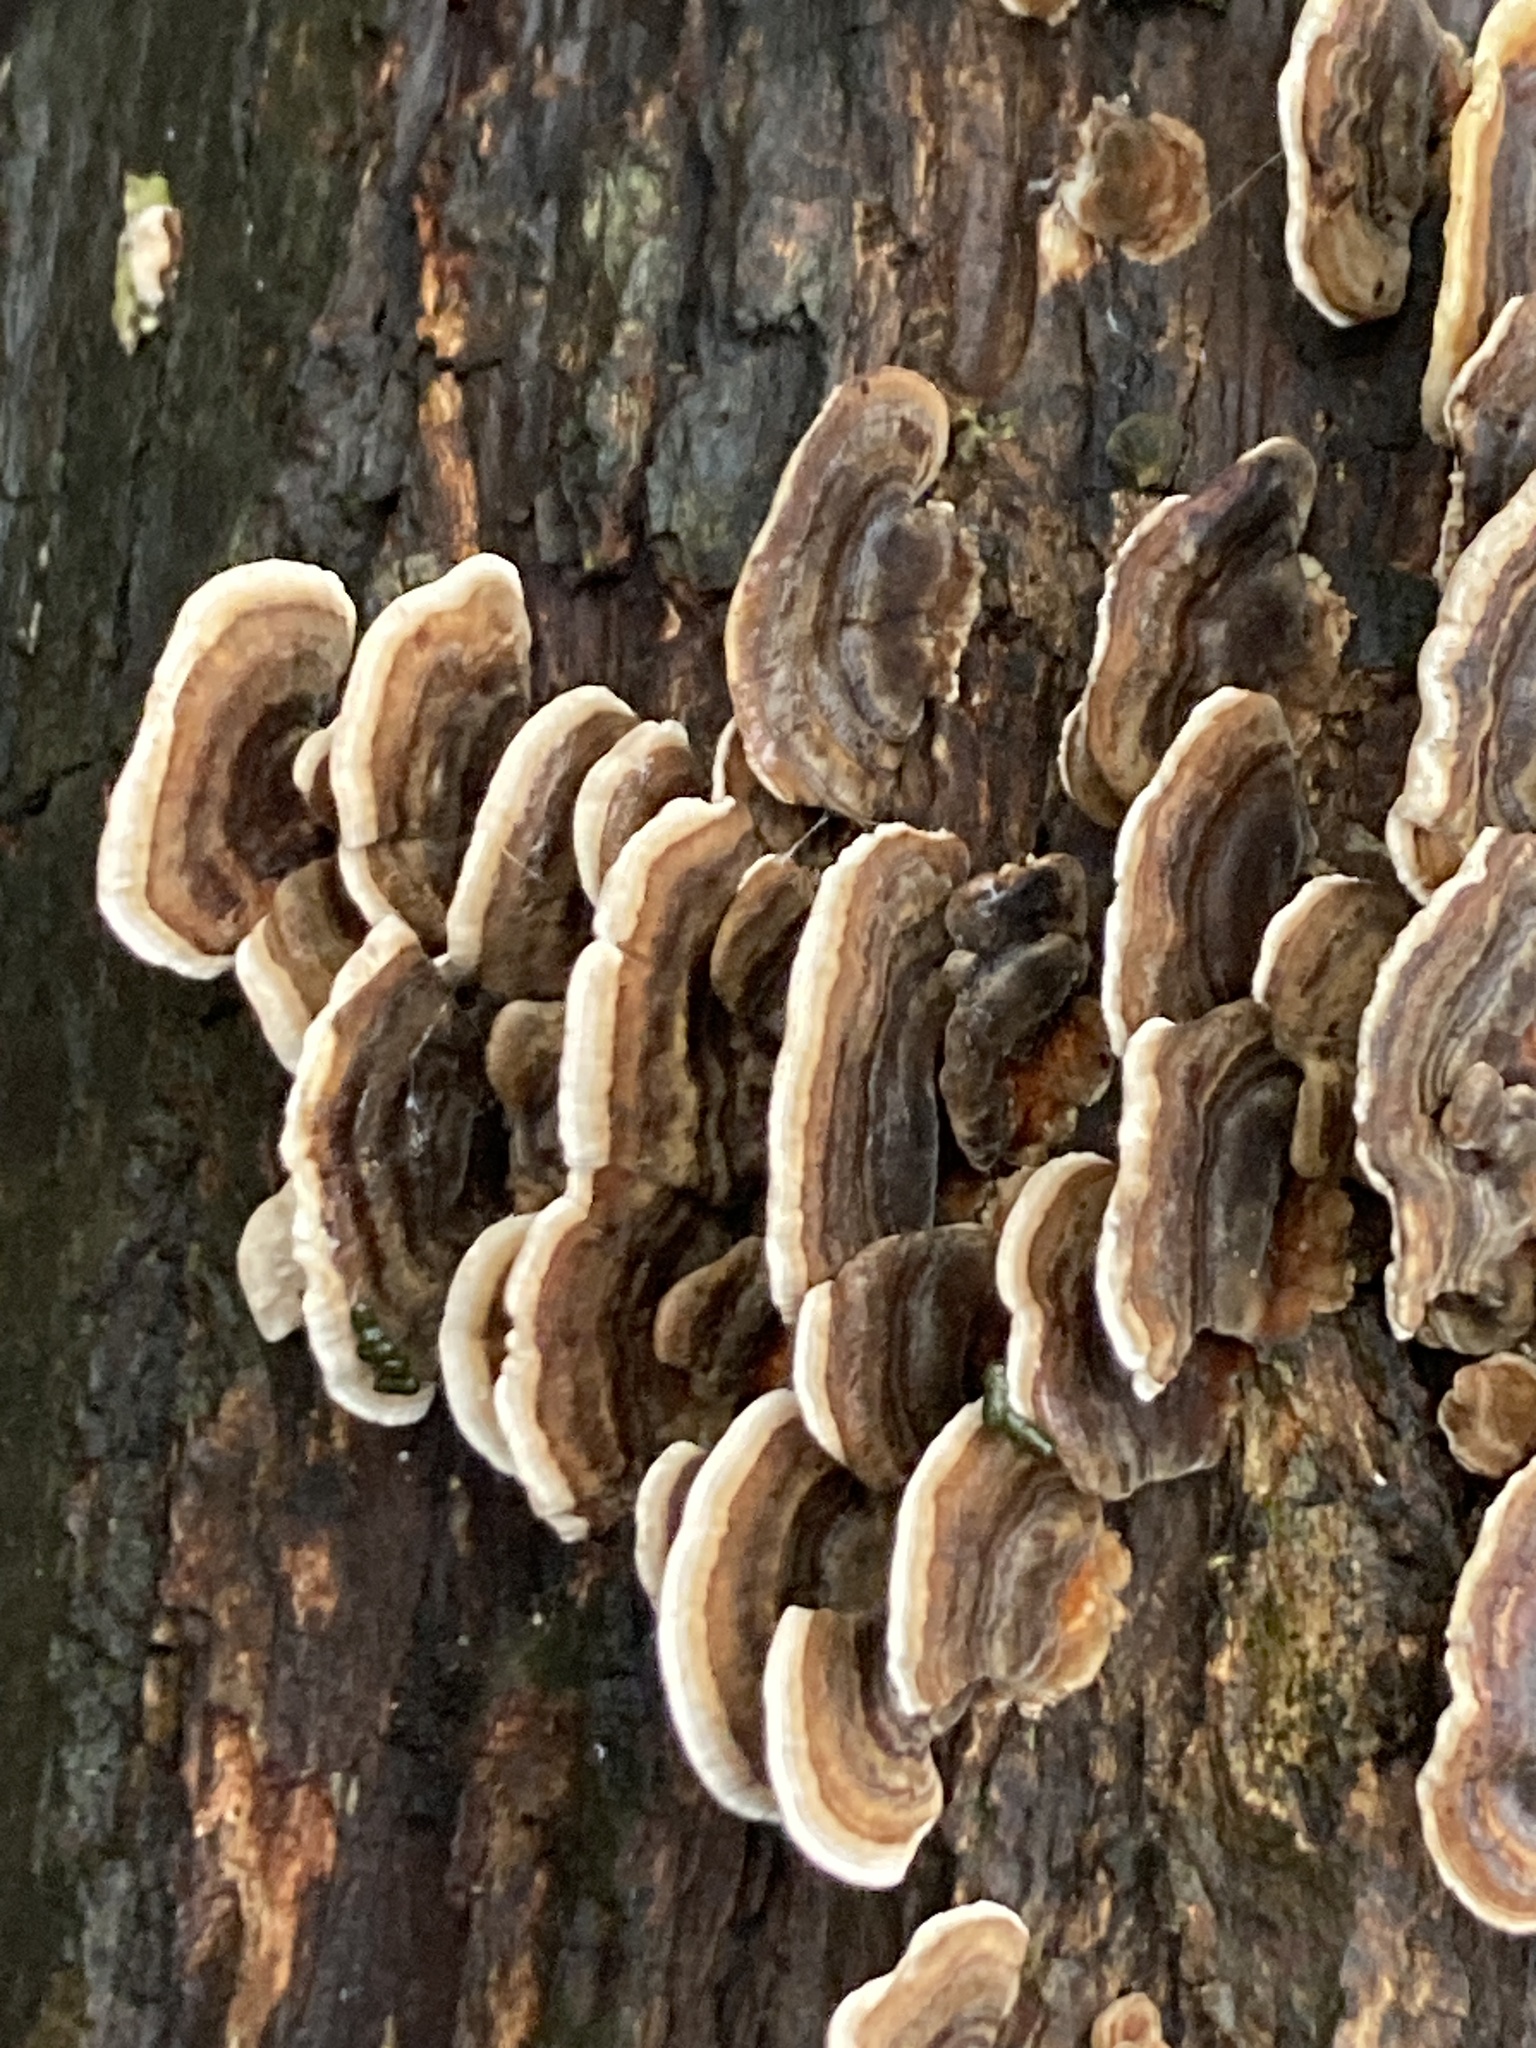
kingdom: Fungi
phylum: Basidiomycota
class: Agaricomycetes
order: Polyporales
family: Polyporaceae
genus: Trametes
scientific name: Trametes versicolor
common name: Turkeytail
